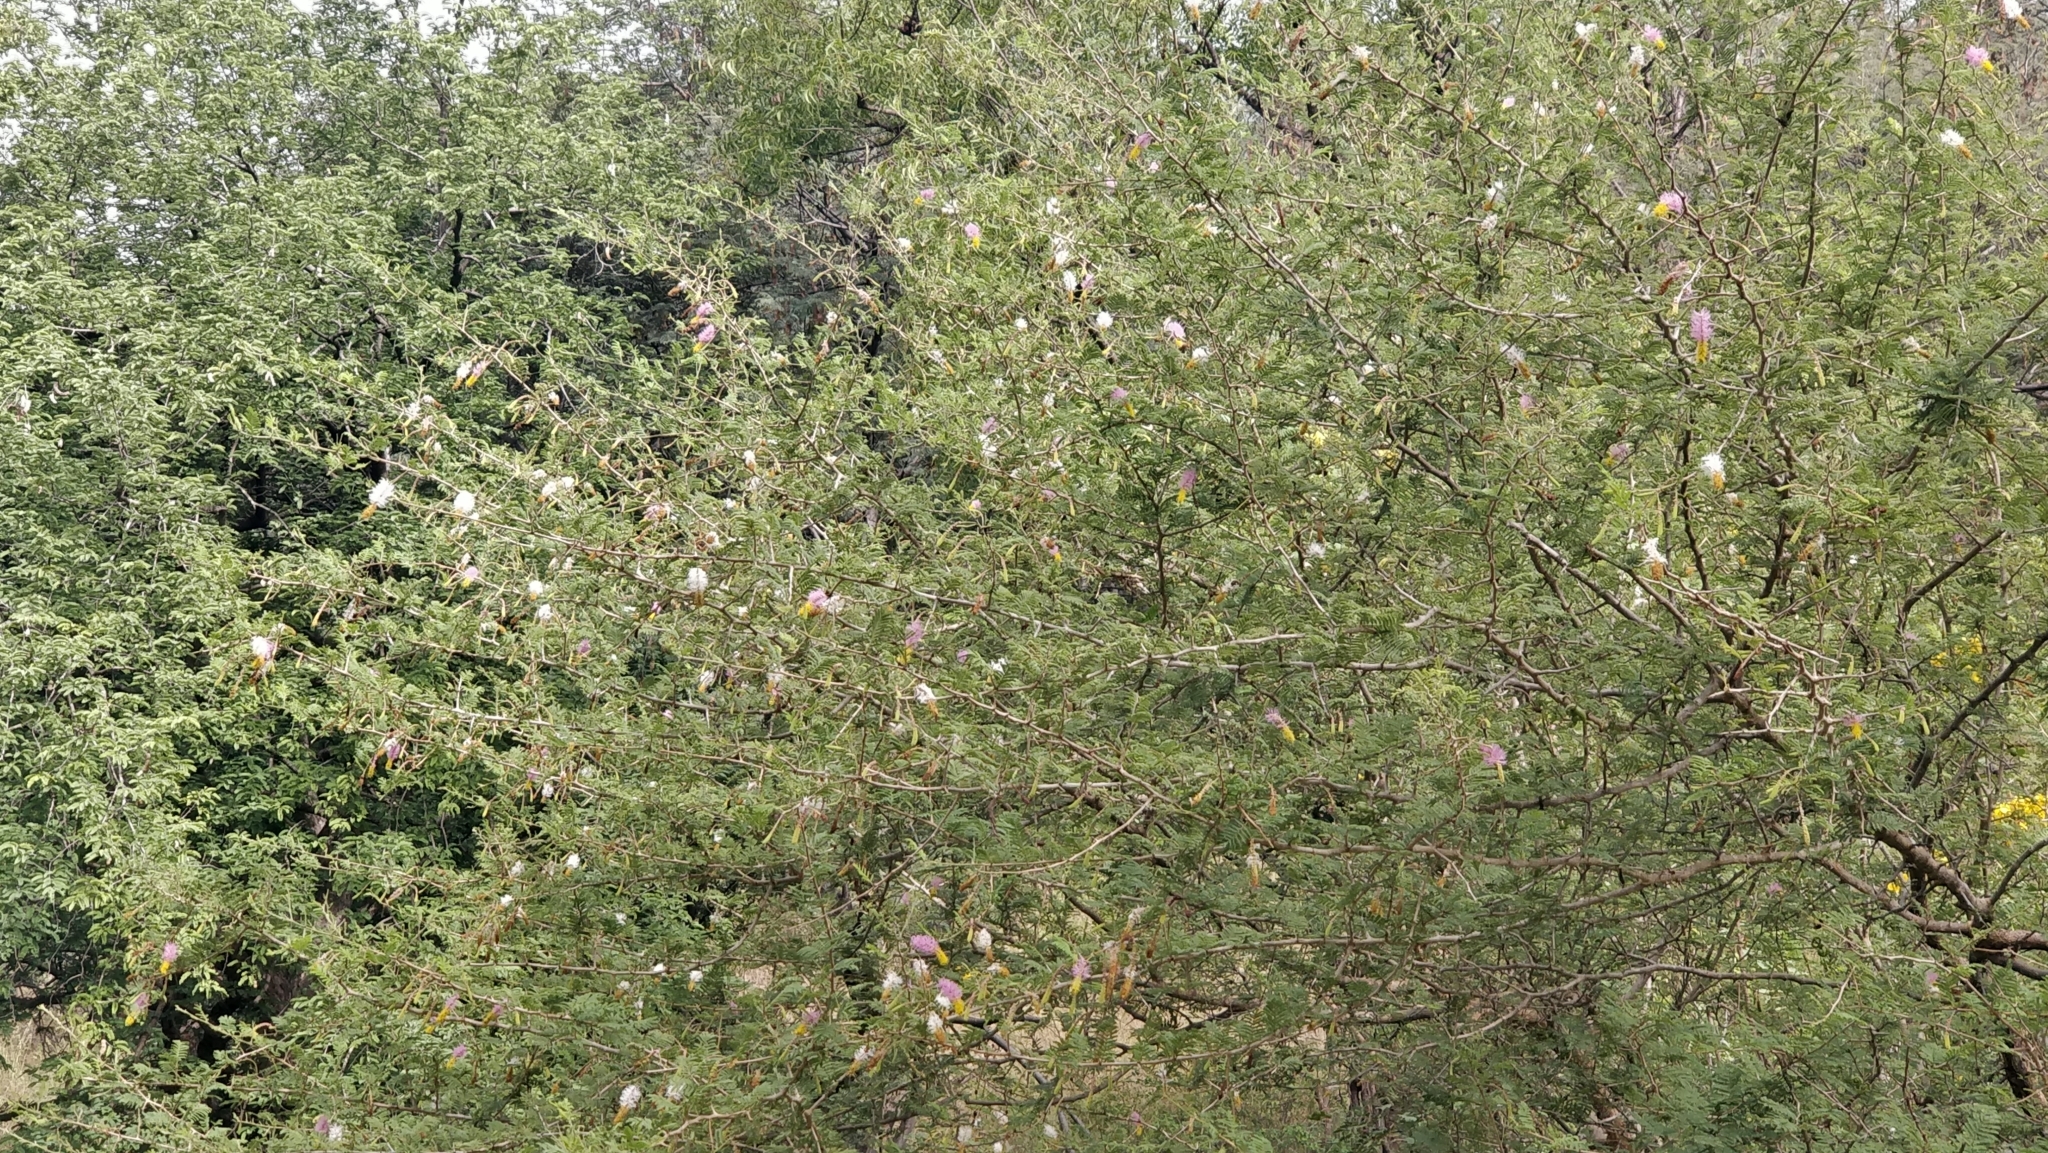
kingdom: Plantae
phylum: Tracheophyta
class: Magnoliopsida
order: Fabales
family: Fabaceae
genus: Dichrostachys
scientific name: Dichrostachys cinerea
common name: Sicklebush
